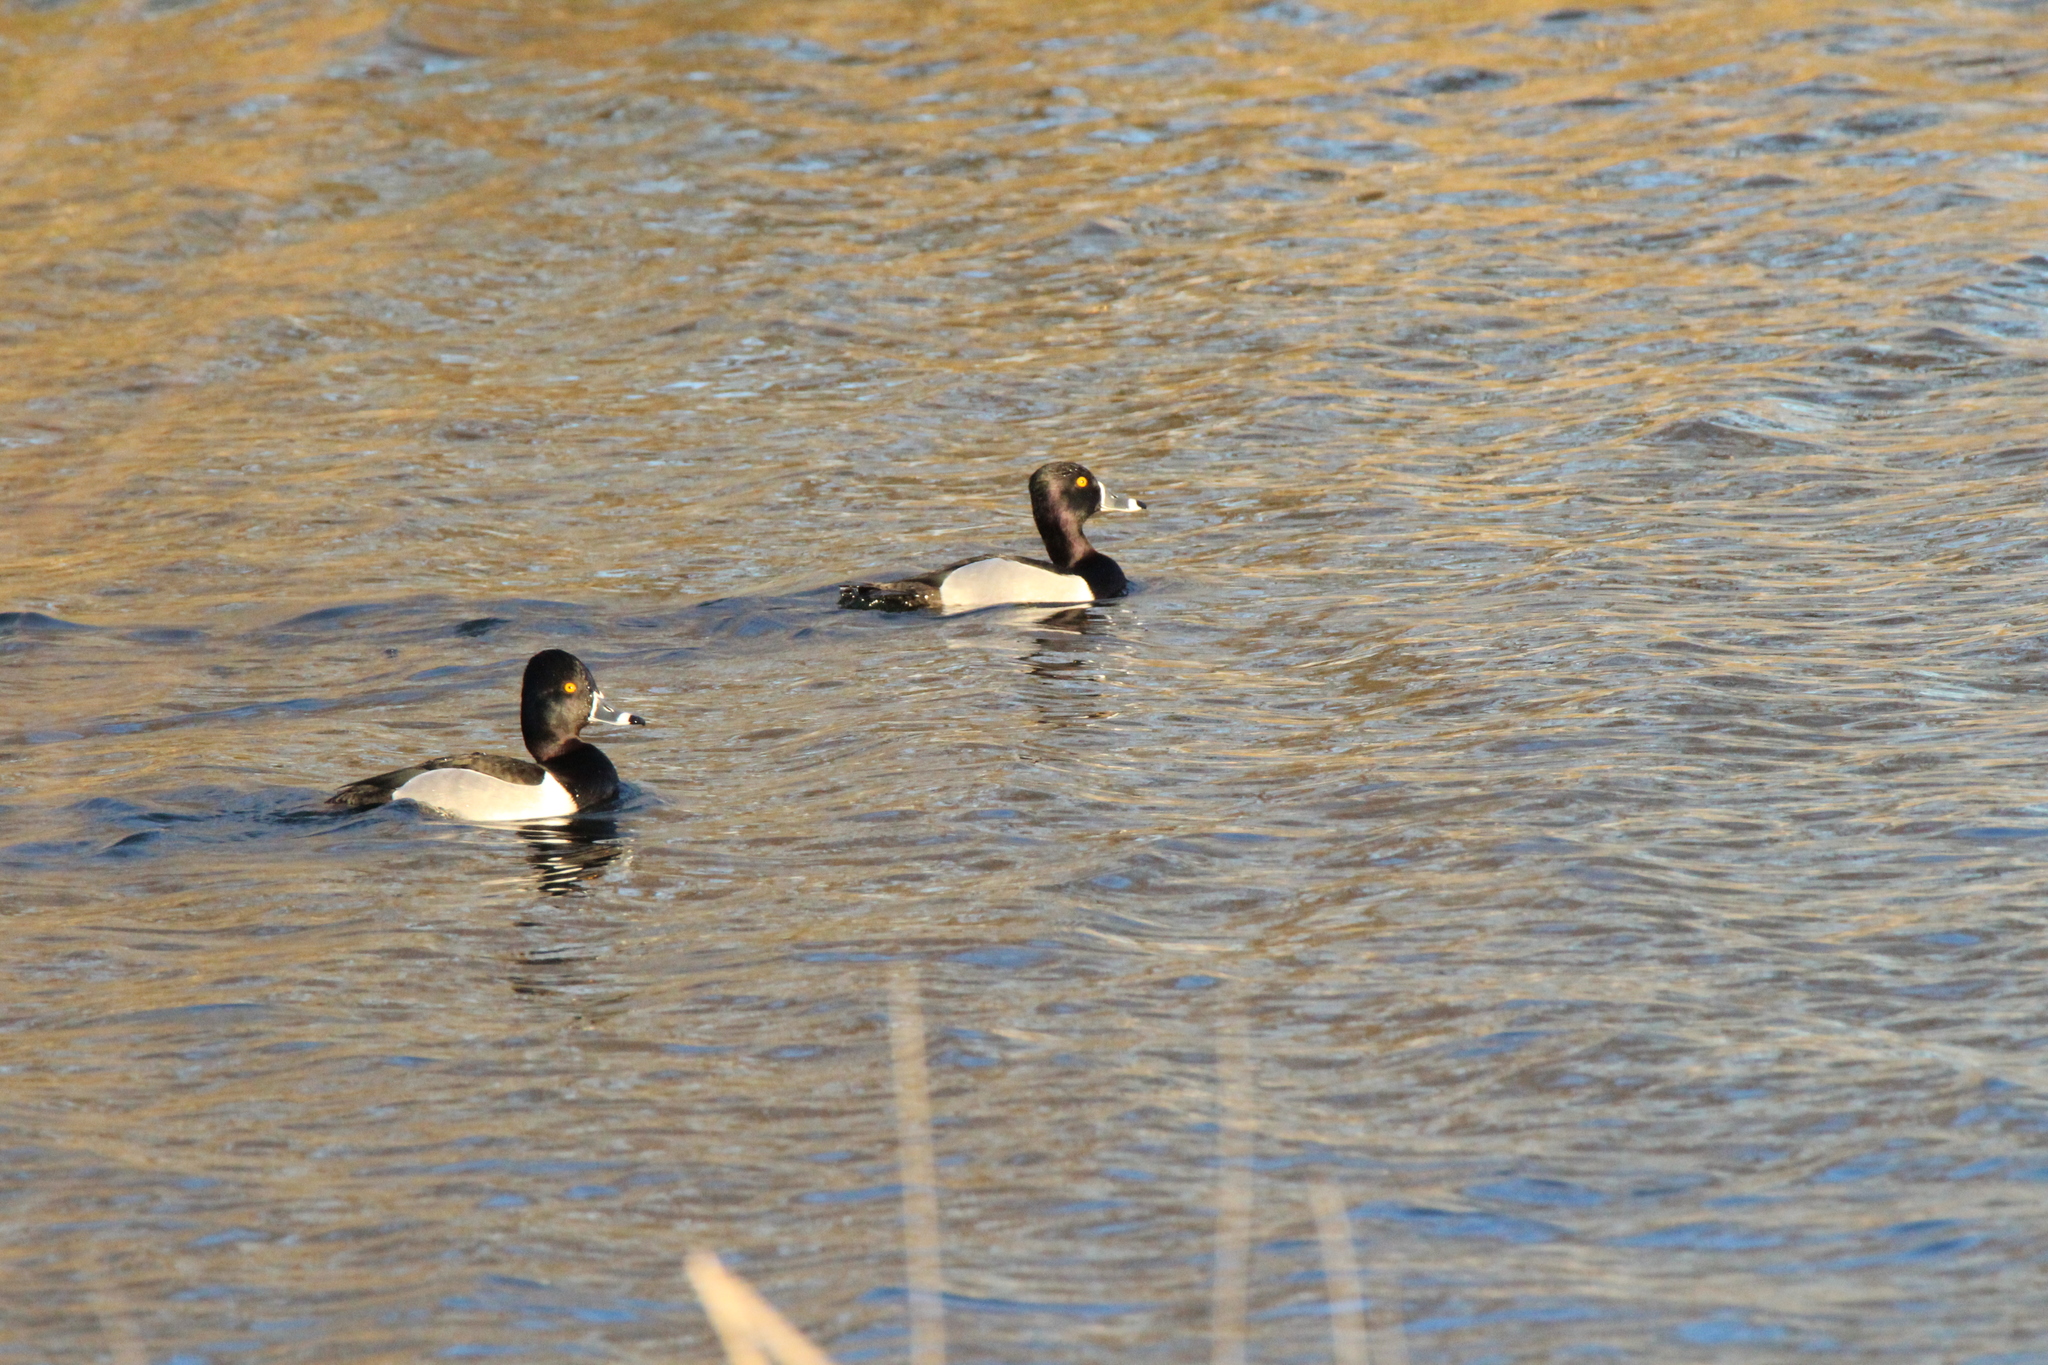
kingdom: Animalia
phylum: Chordata
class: Aves
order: Anseriformes
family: Anatidae
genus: Aythya
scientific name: Aythya collaris
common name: Ring-necked duck
